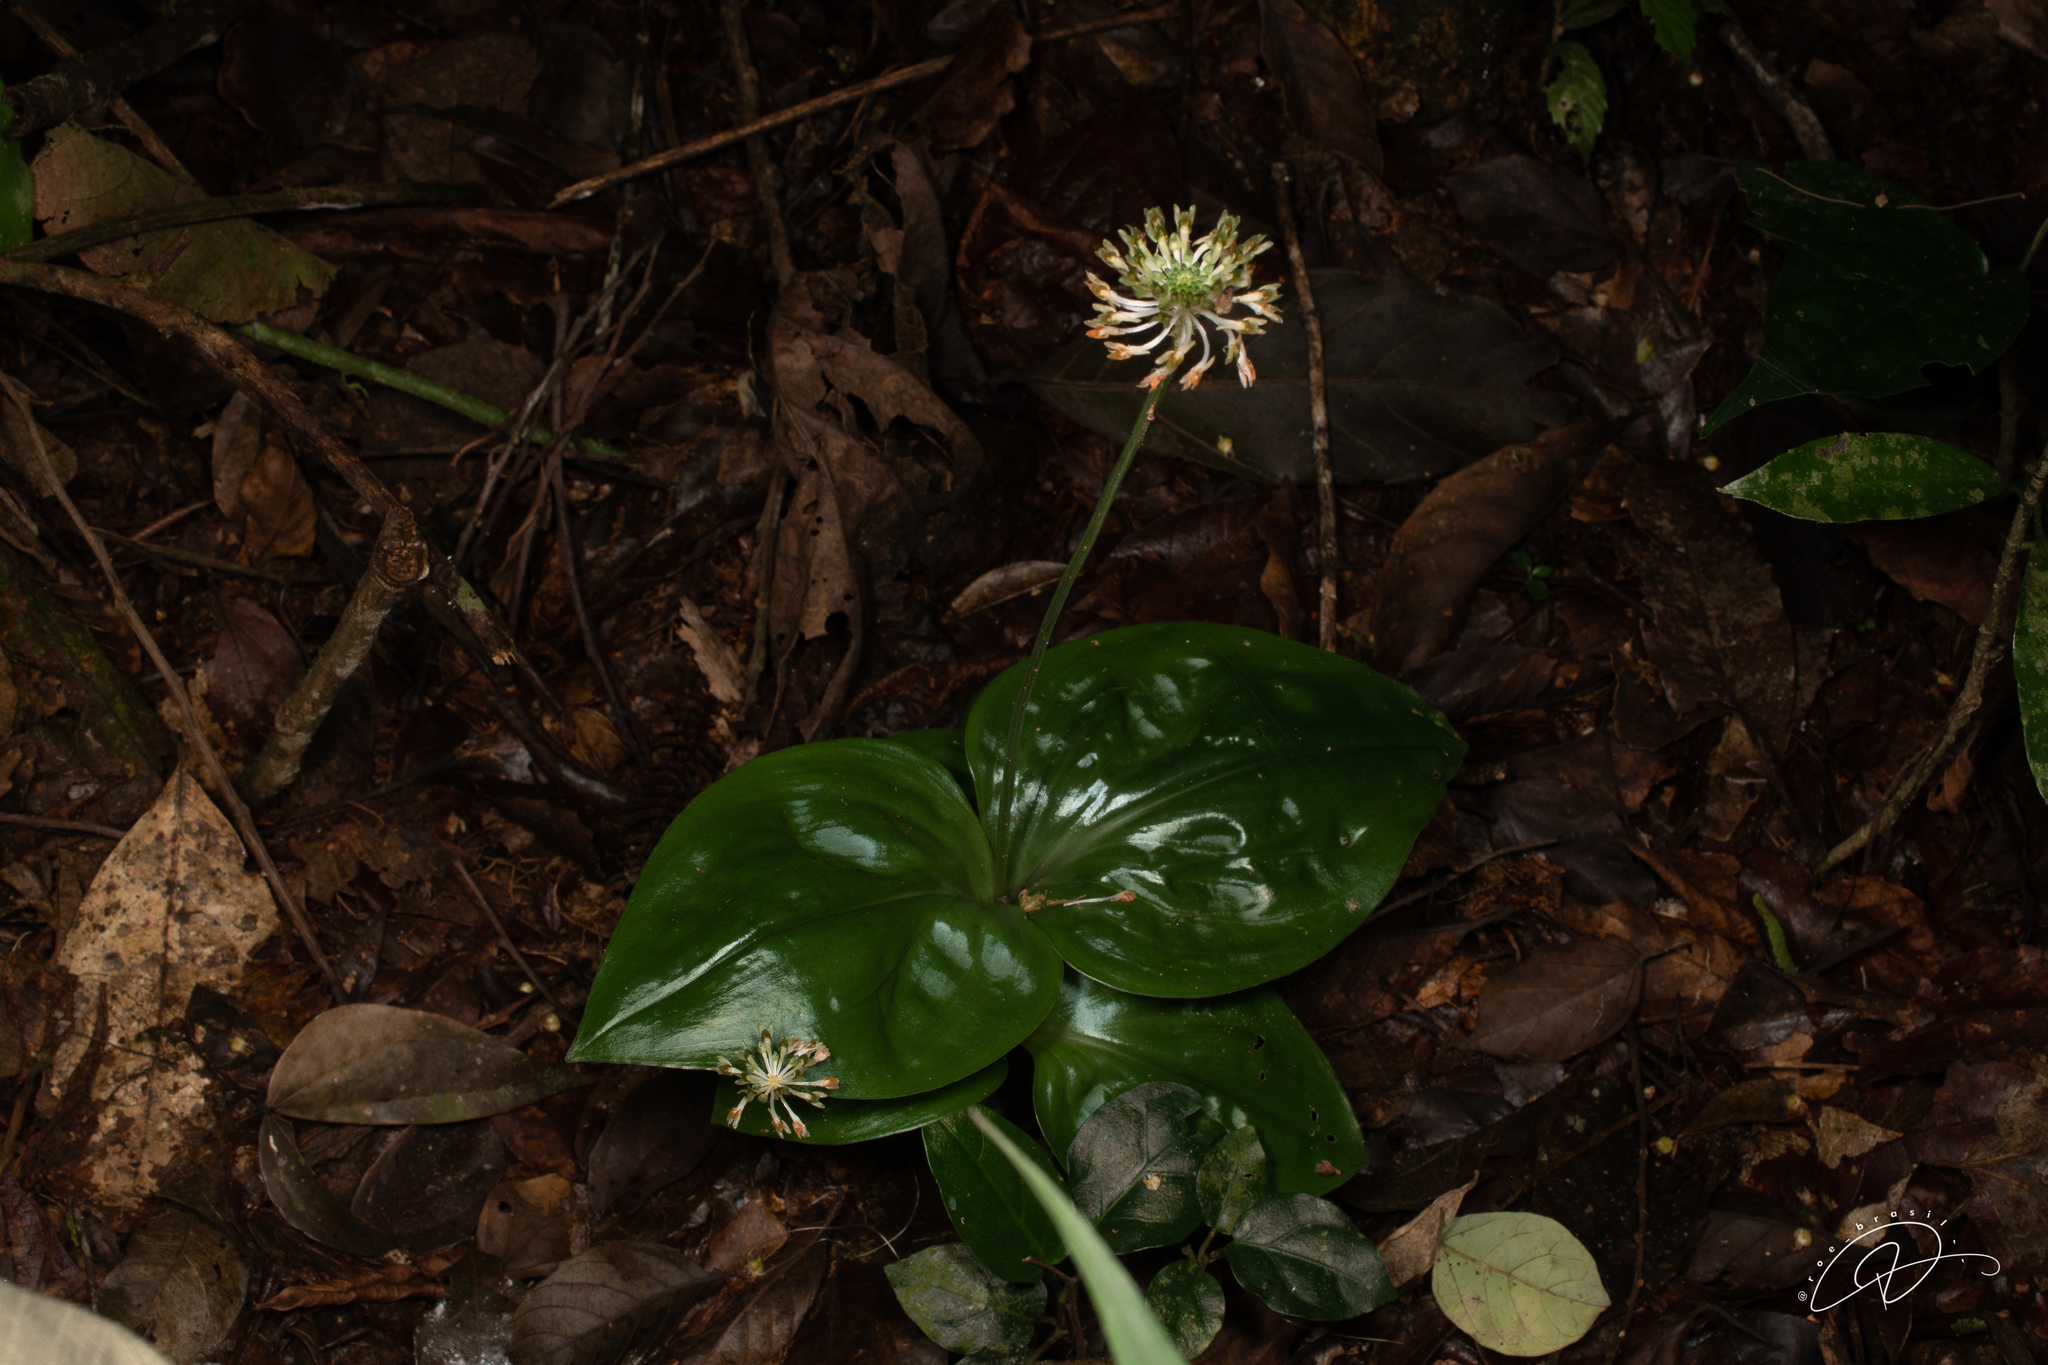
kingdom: Plantae
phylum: Tracheophyta
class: Liliopsida
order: Asparagales
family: Orchidaceae
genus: Malaxis
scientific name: Malaxis excavata
